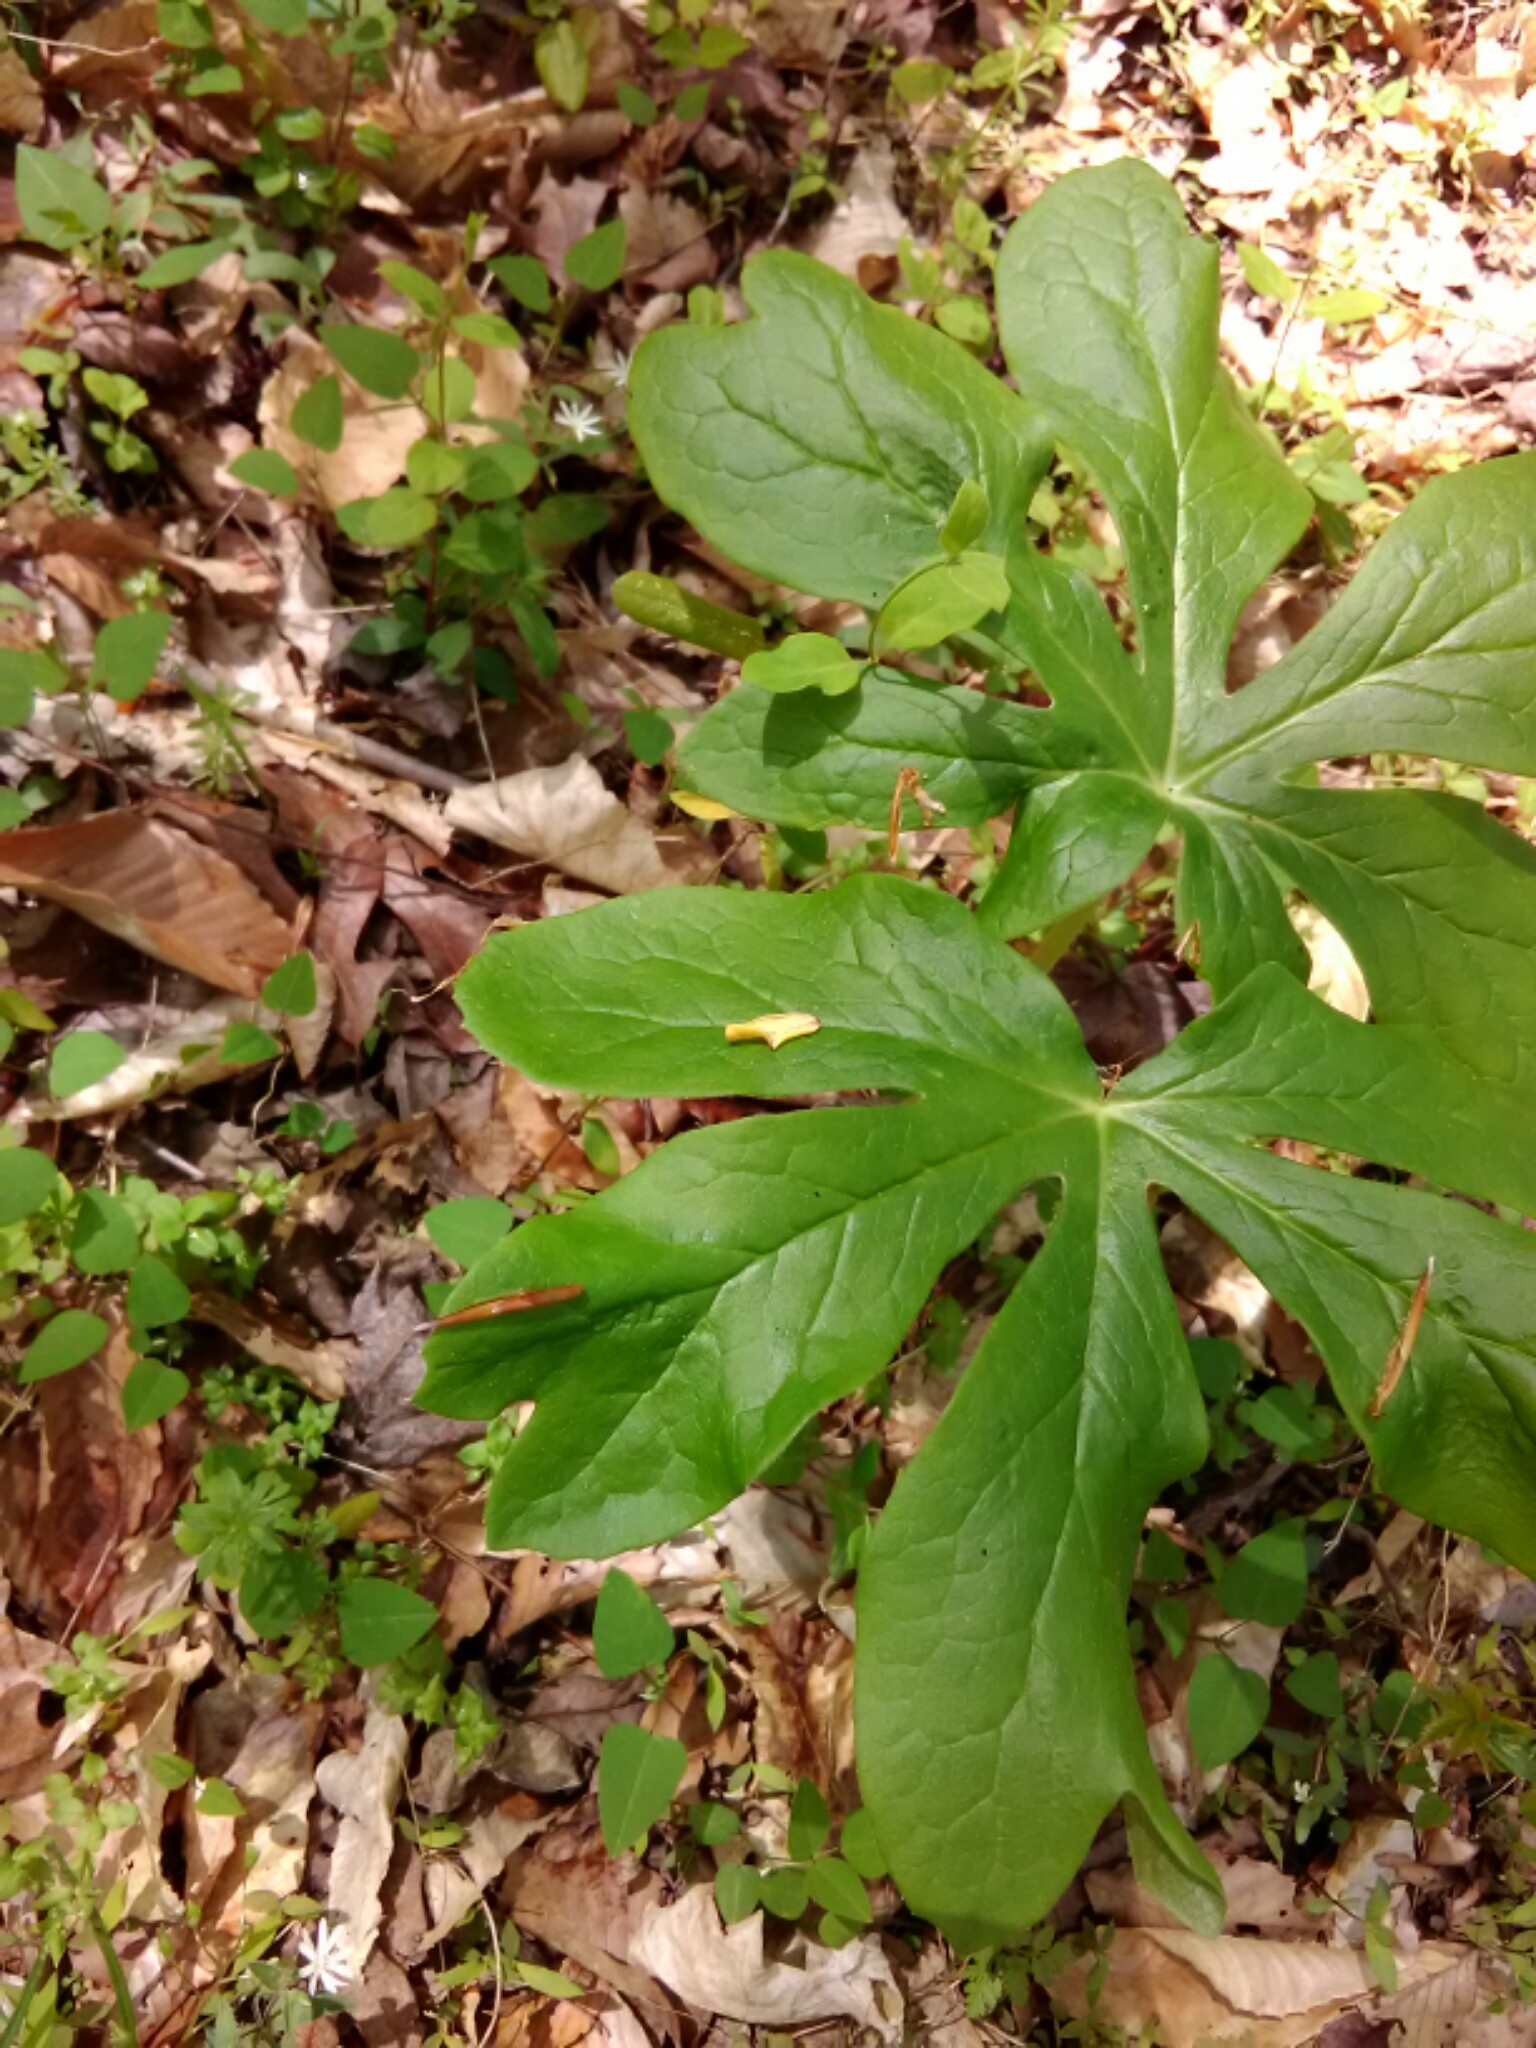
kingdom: Plantae
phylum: Tracheophyta
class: Magnoliopsida
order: Ranunculales
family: Berberidaceae
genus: Podophyllum
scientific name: Podophyllum peltatum
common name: Wild mandrake
